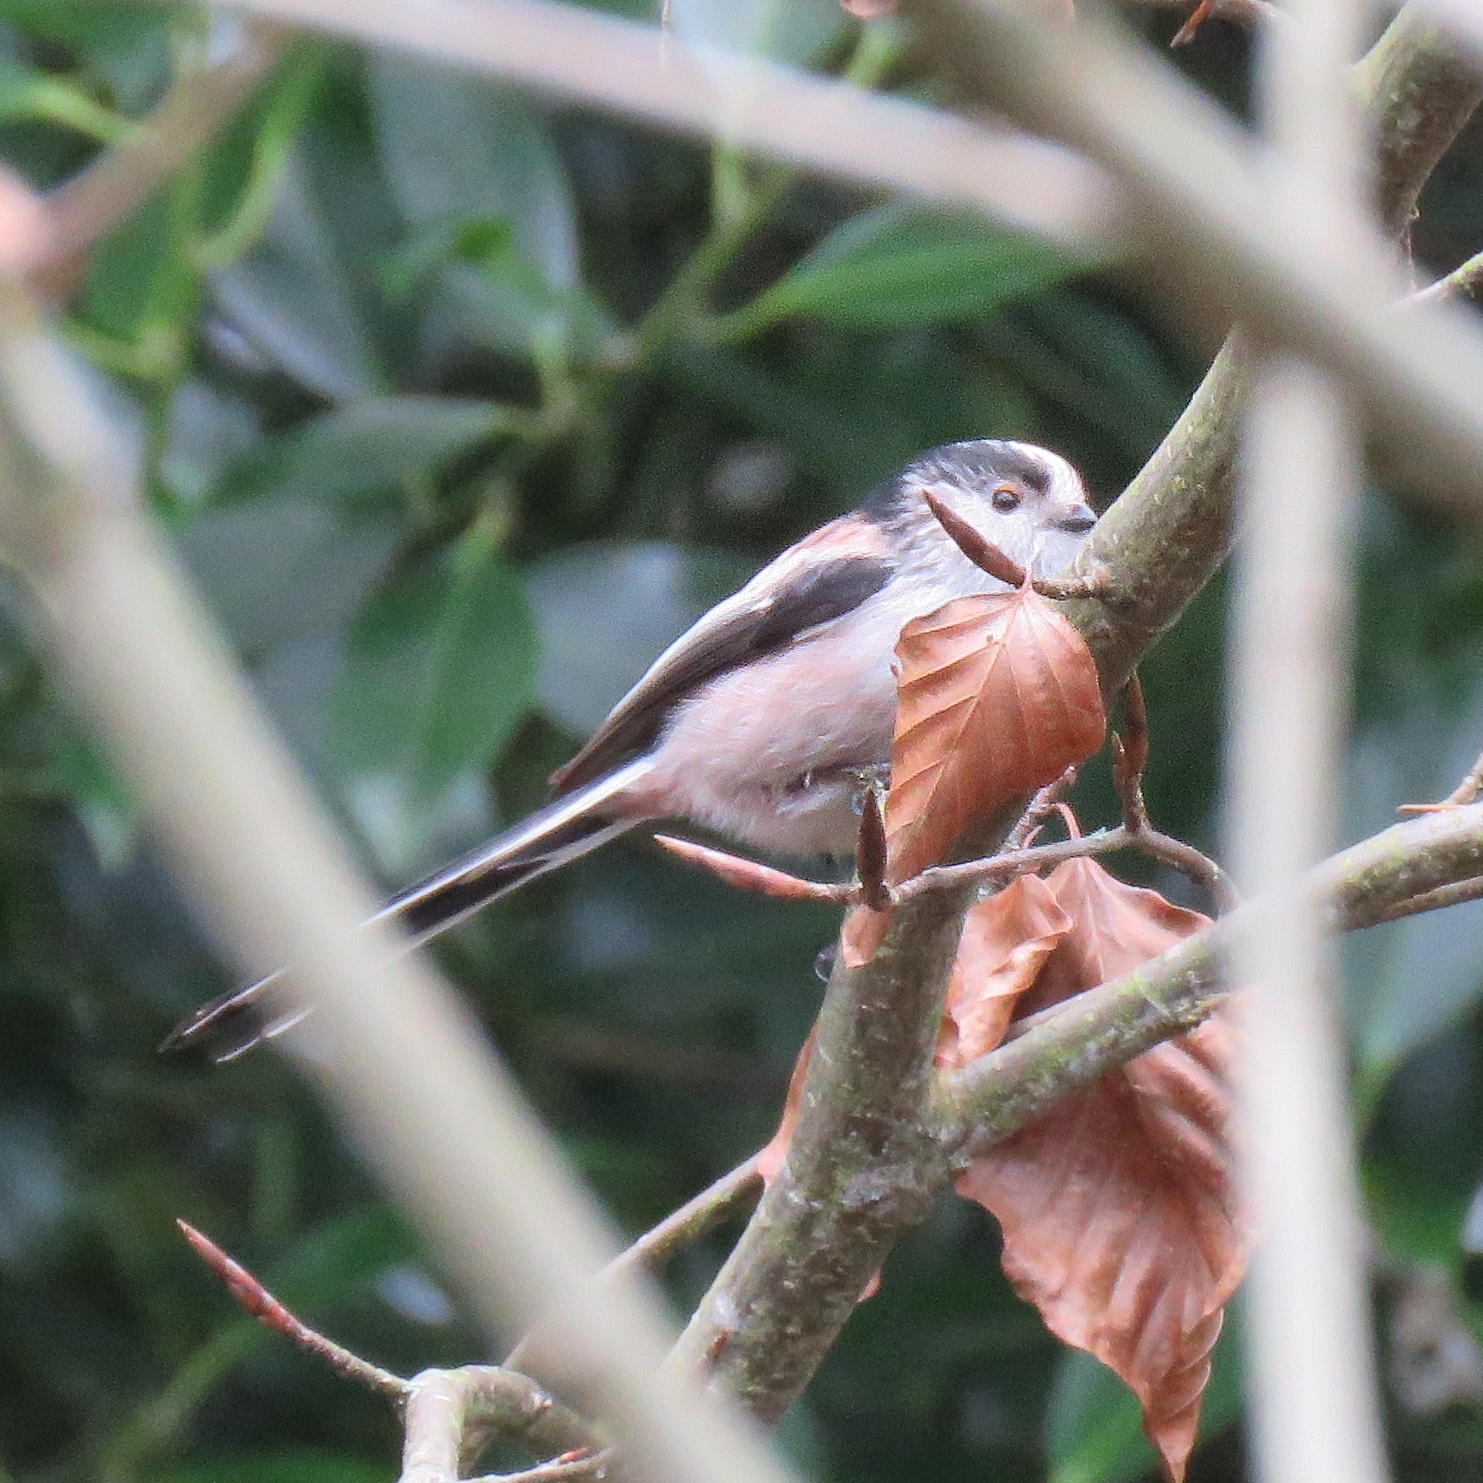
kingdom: Animalia
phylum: Chordata
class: Aves
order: Passeriformes
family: Aegithalidae
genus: Aegithalos
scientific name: Aegithalos caudatus
